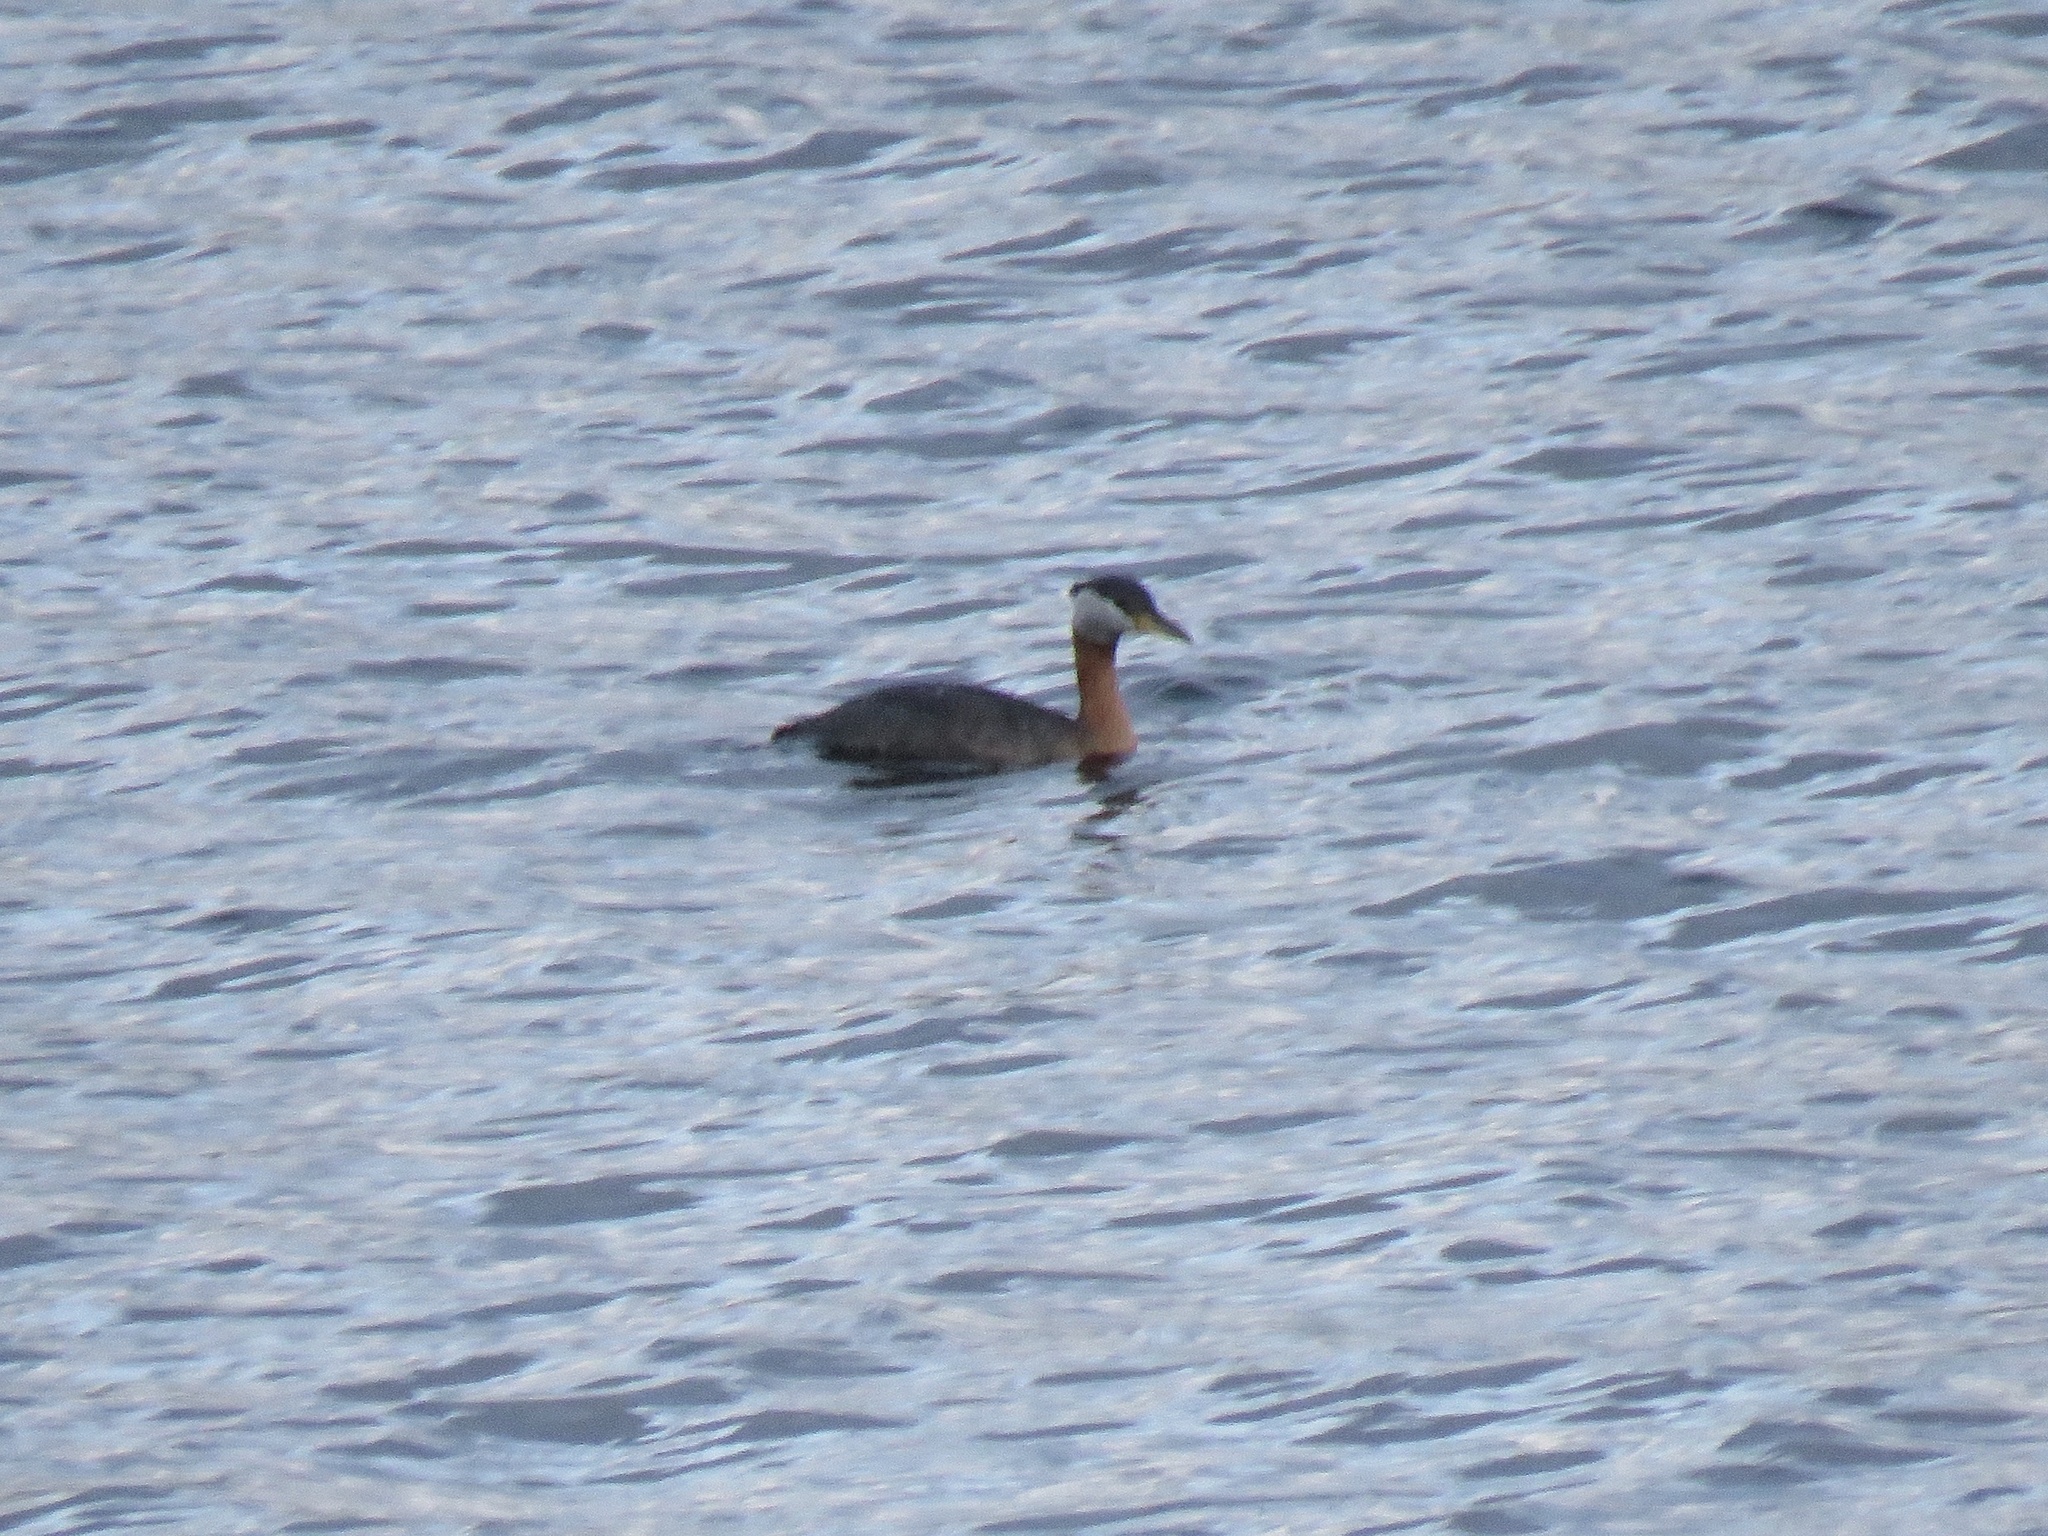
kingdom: Animalia
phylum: Chordata
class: Aves
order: Podicipediformes
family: Podicipedidae
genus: Podiceps
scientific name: Podiceps grisegena
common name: Red-necked grebe
